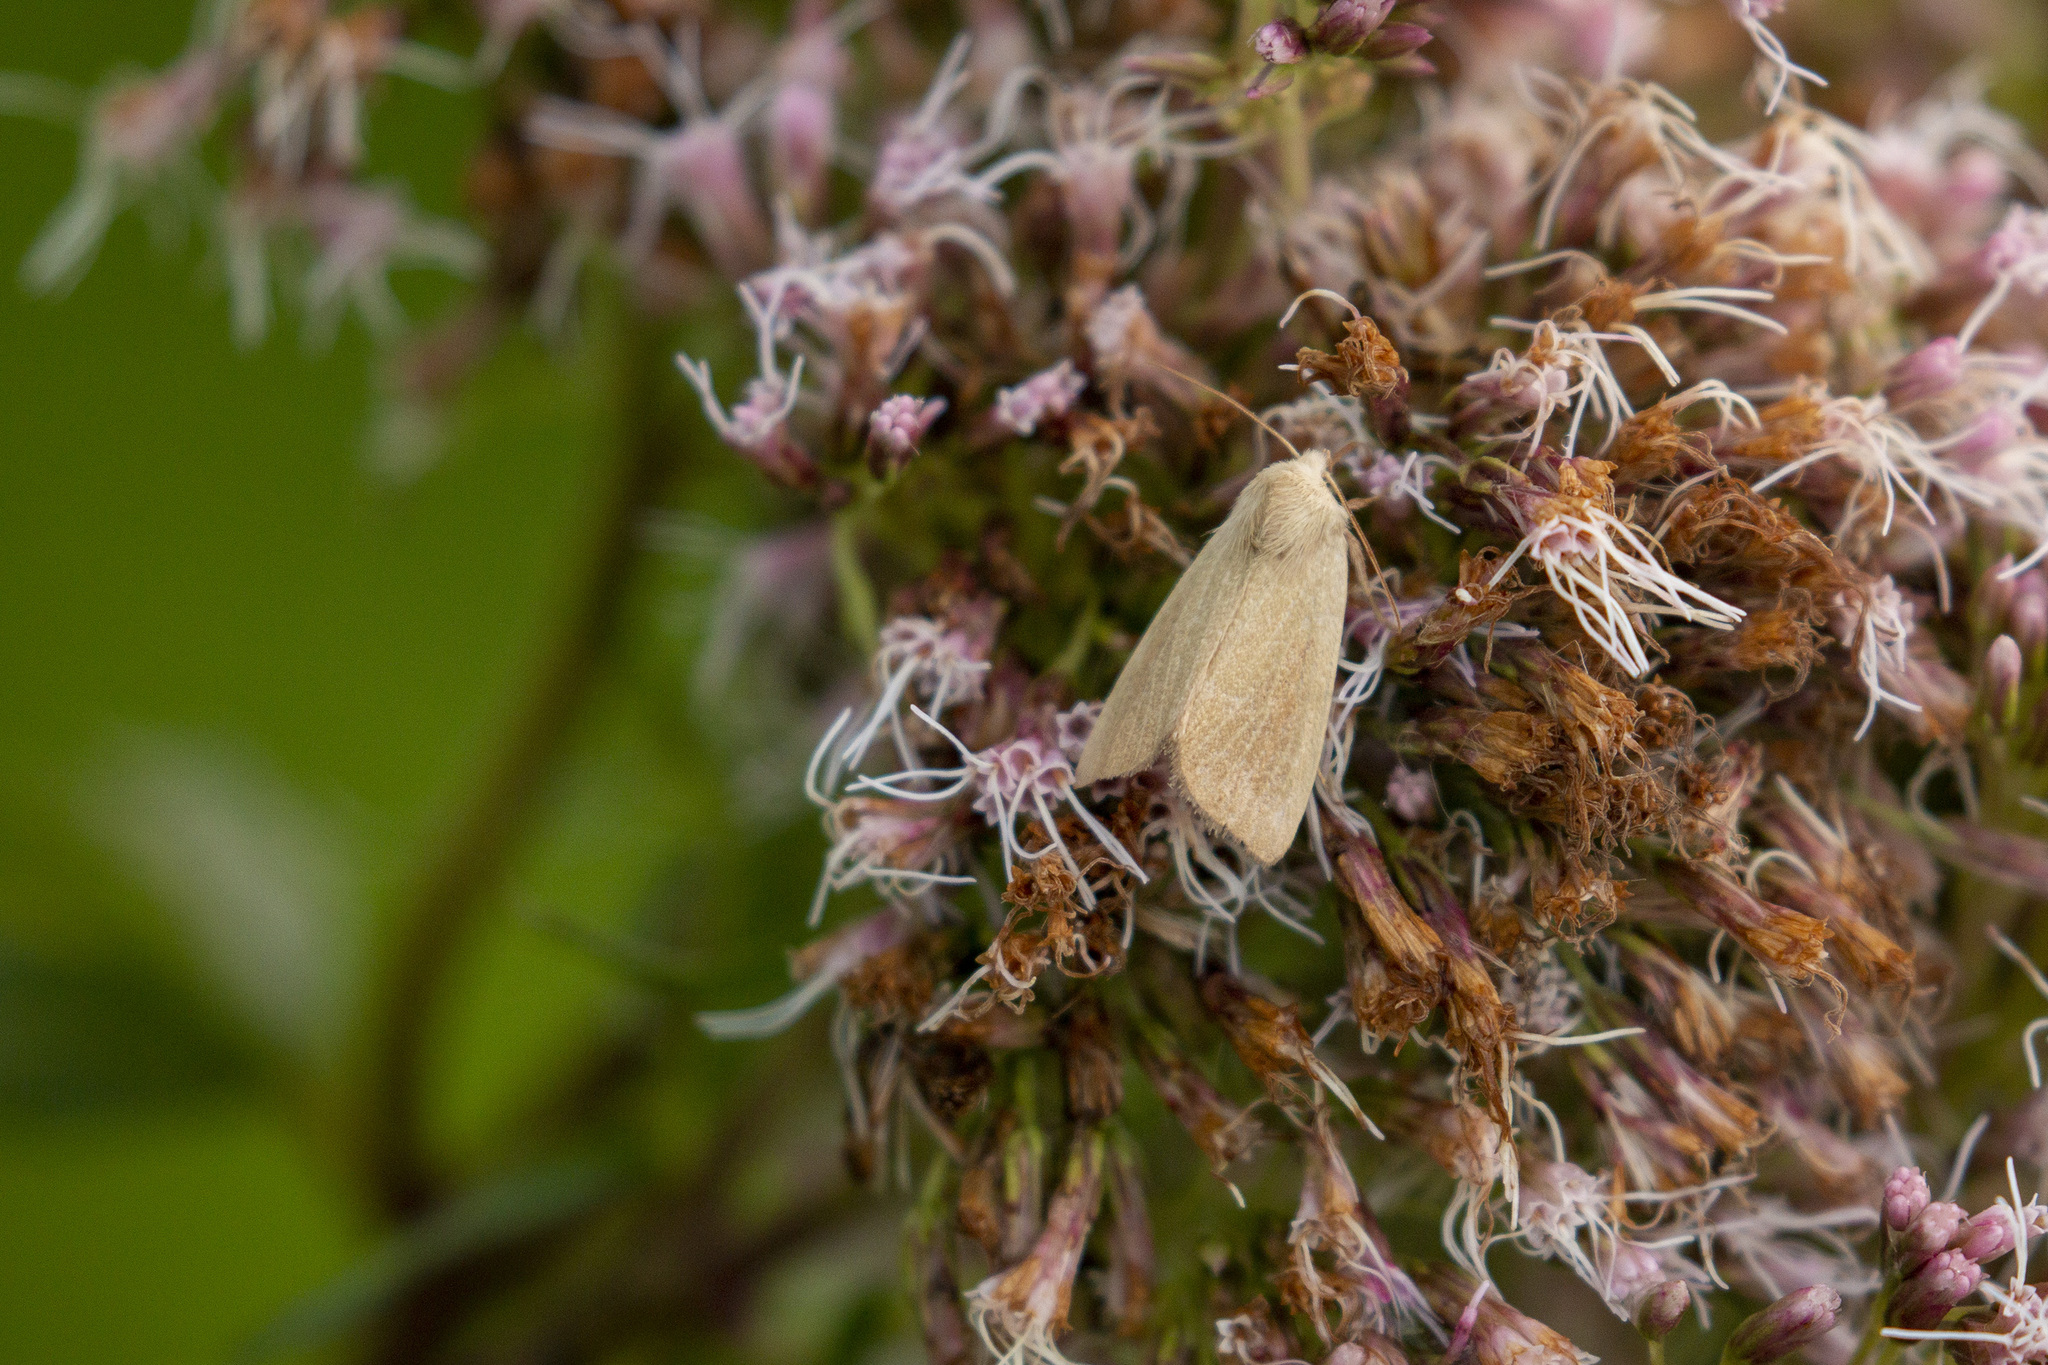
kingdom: Animalia
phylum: Arthropoda
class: Insecta
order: Lepidoptera
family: Noctuidae
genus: Arenostola
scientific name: Arenostola phragmitidis
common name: Fen wainscot
